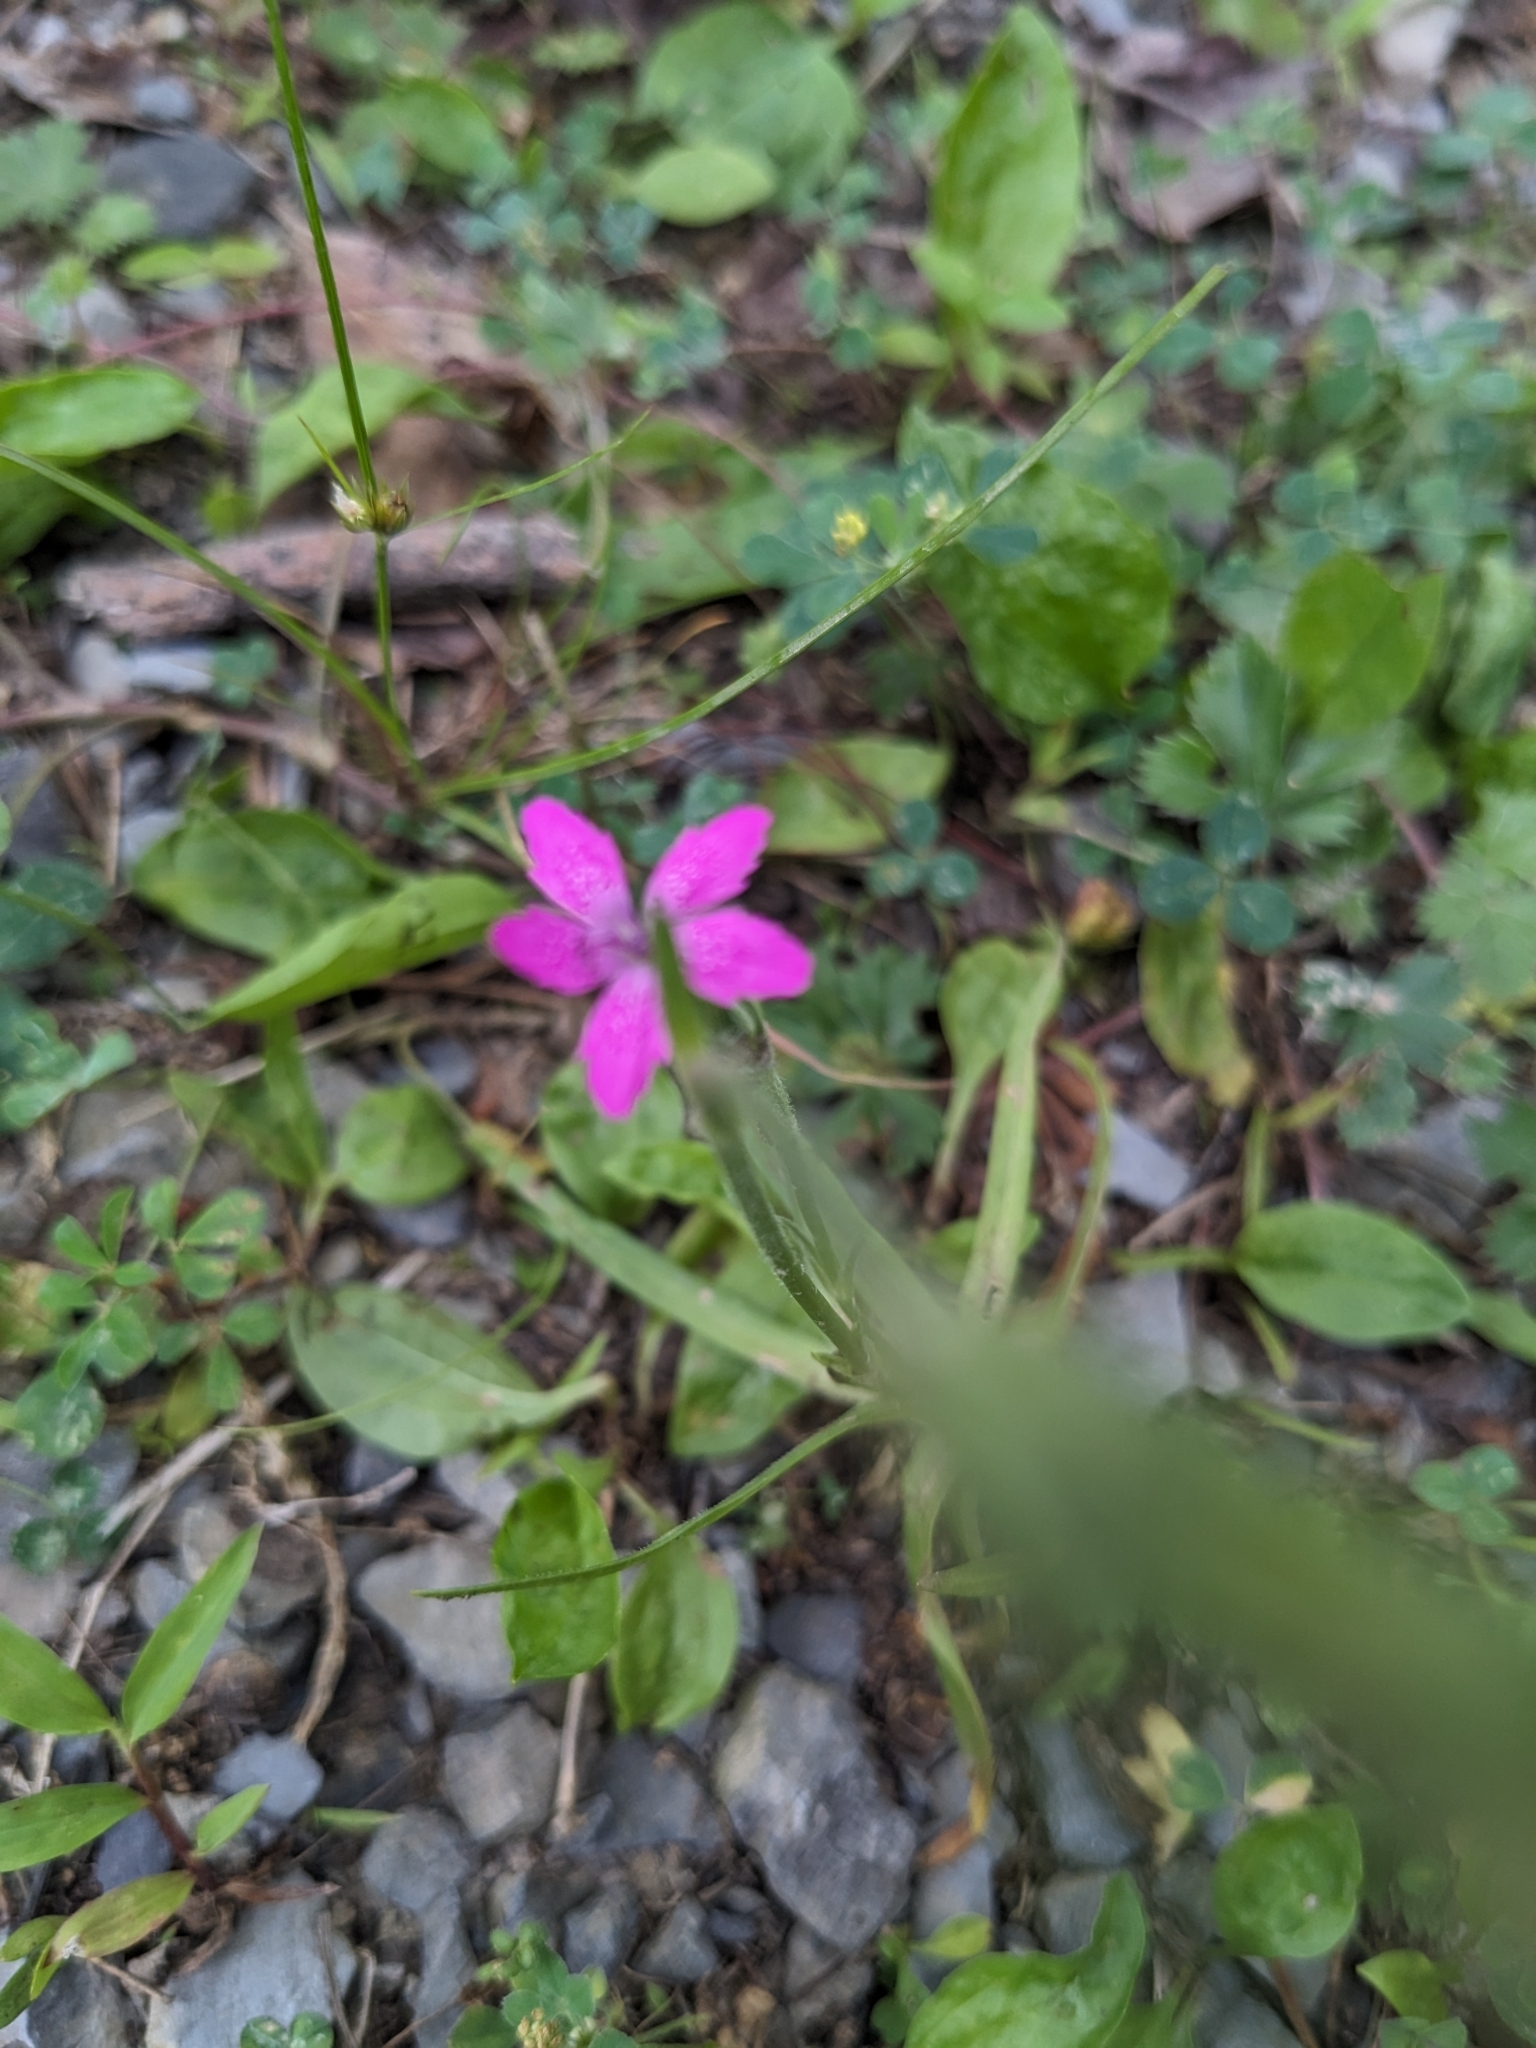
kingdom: Plantae
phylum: Tracheophyta
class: Magnoliopsida
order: Caryophyllales
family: Caryophyllaceae
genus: Dianthus
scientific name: Dianthus armeria
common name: Deptford pink
